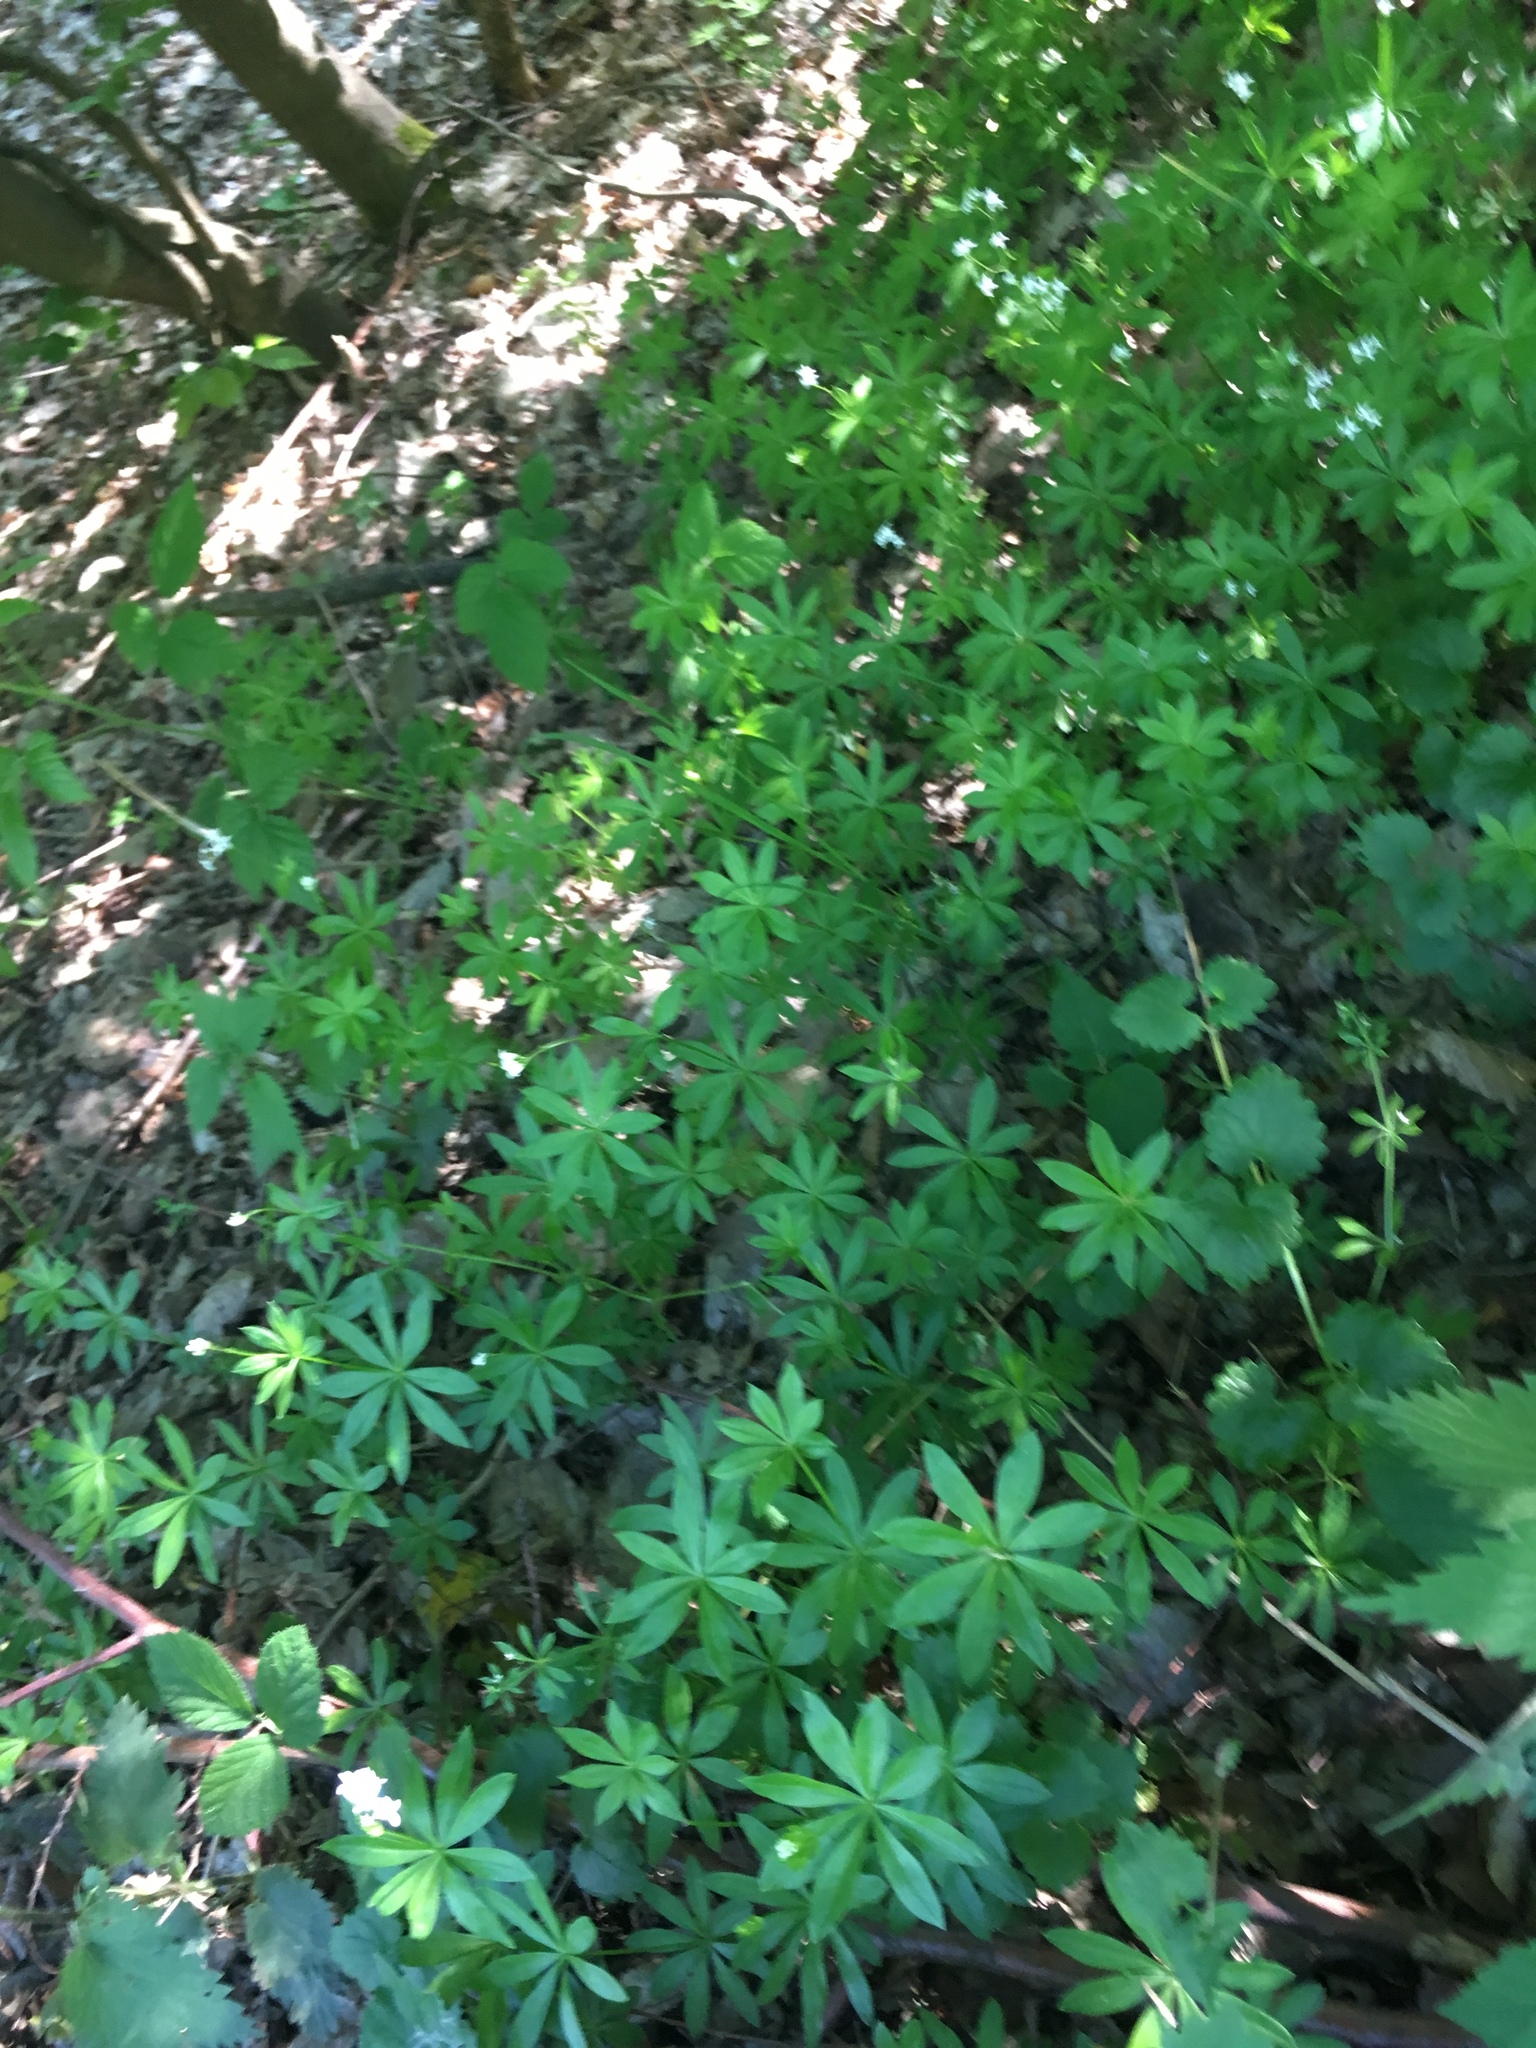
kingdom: Plantae
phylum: Tracheophyta
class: Magnoliopsida
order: Gentianales
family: Rubiaceae
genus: Galium
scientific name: Galium odoratum
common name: Sweet woodruff
